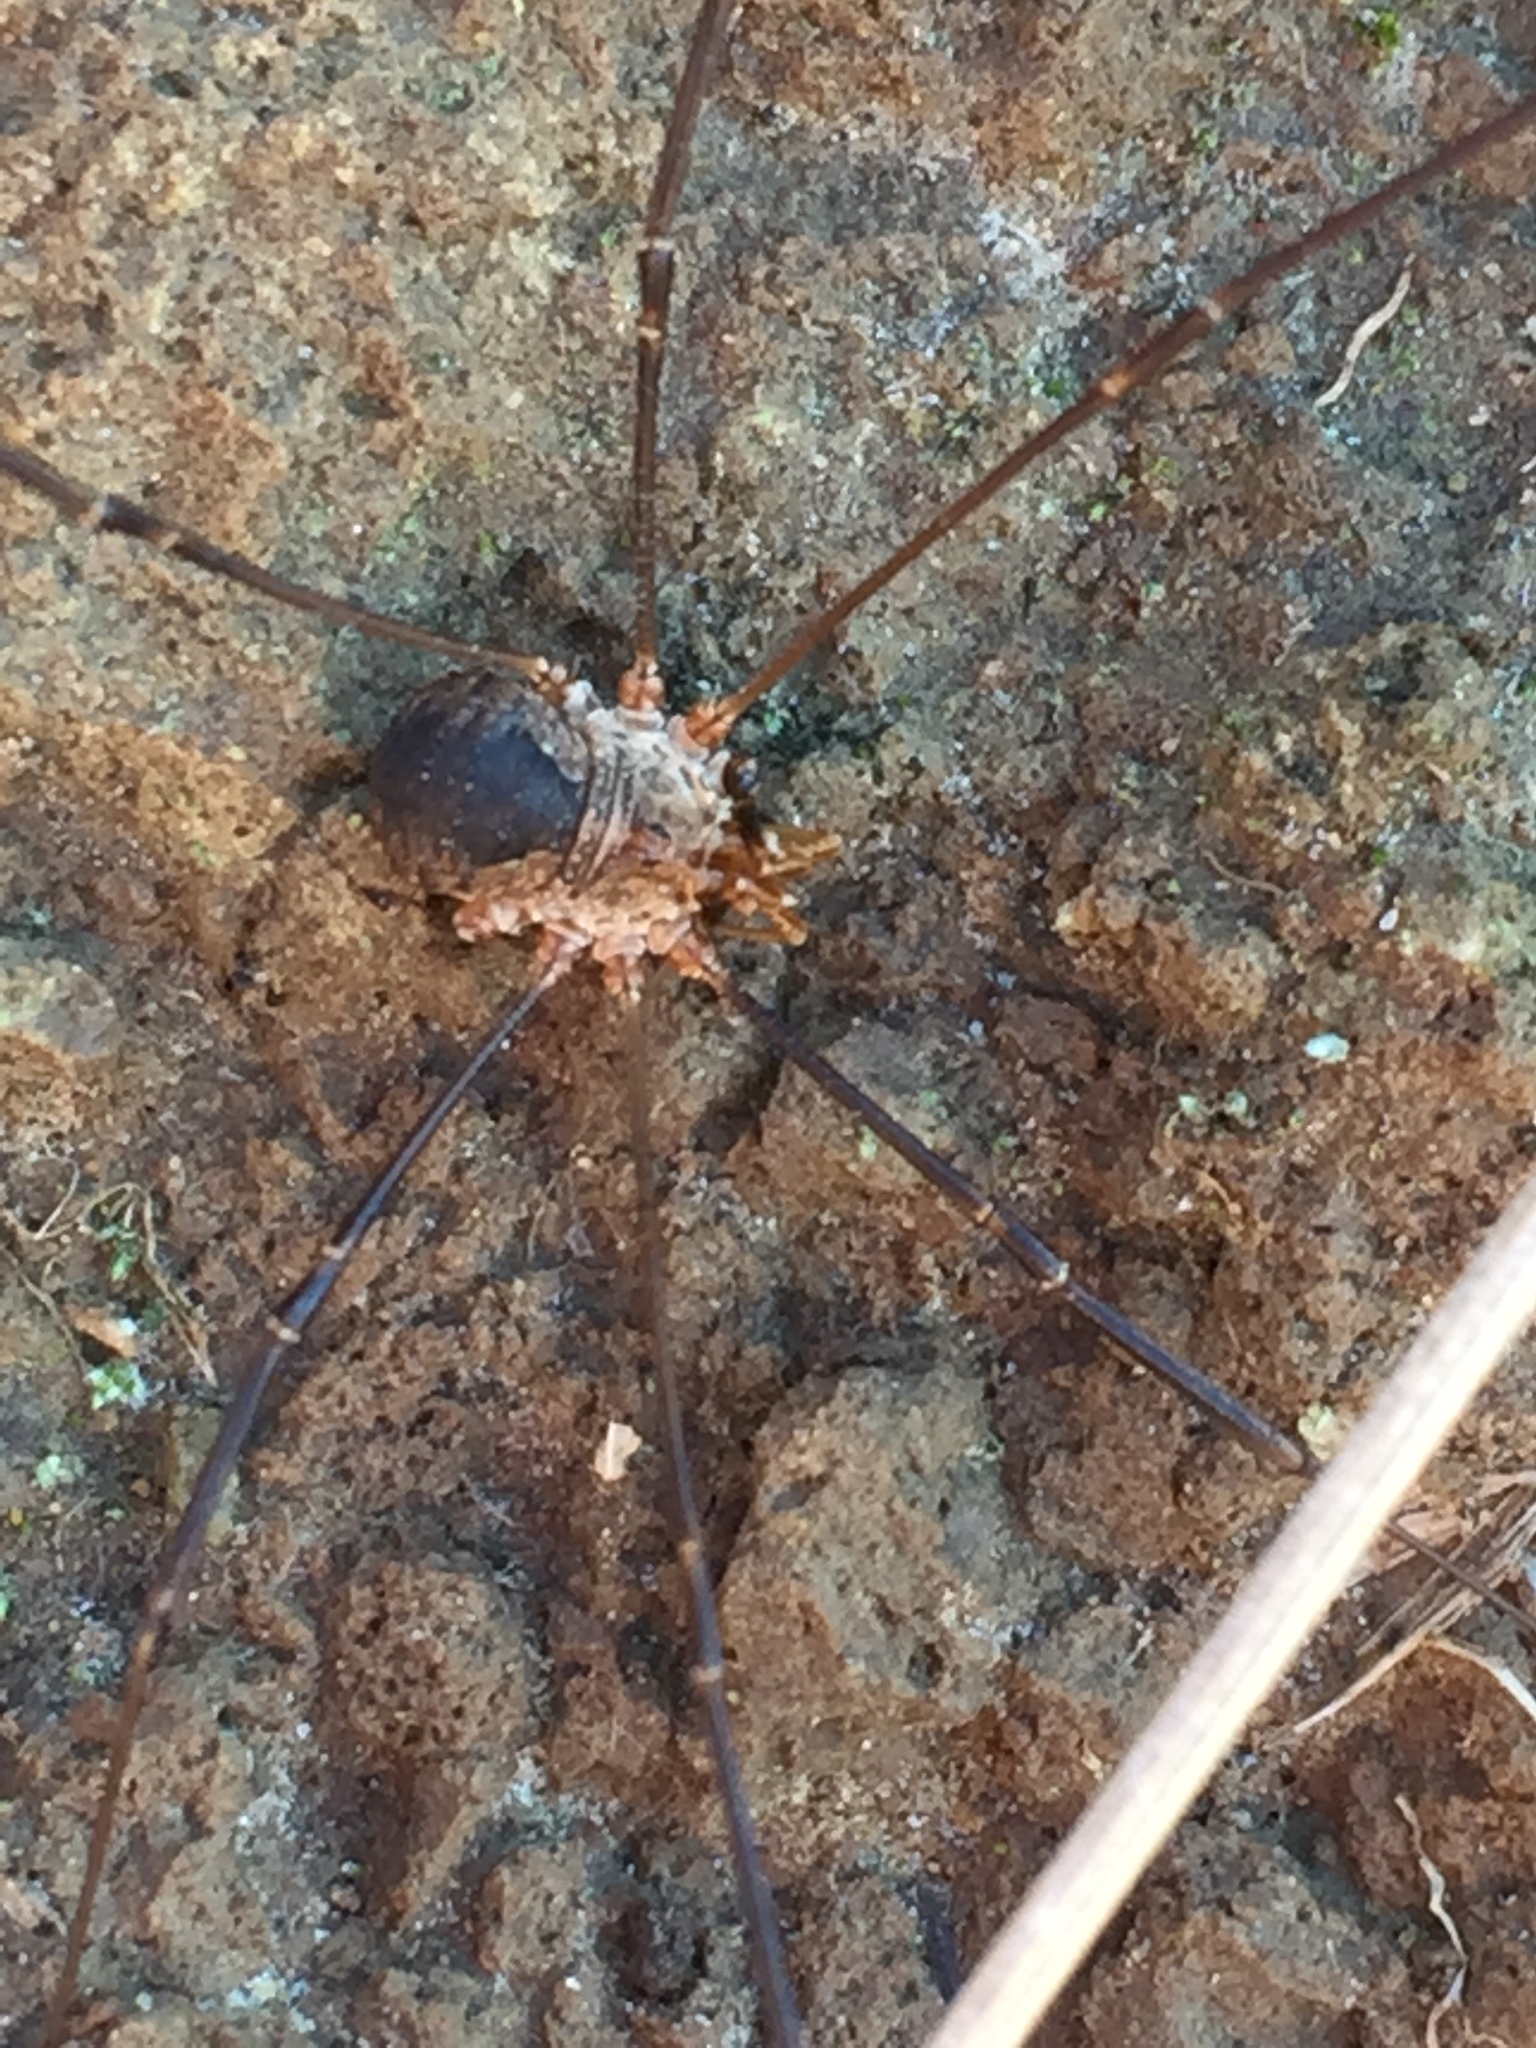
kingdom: Animalia
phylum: Arthropoda
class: Arachnida
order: Opiliones
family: Phalangiidae
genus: Phalangium
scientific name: Phalangium opilio
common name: Daddy longleg
